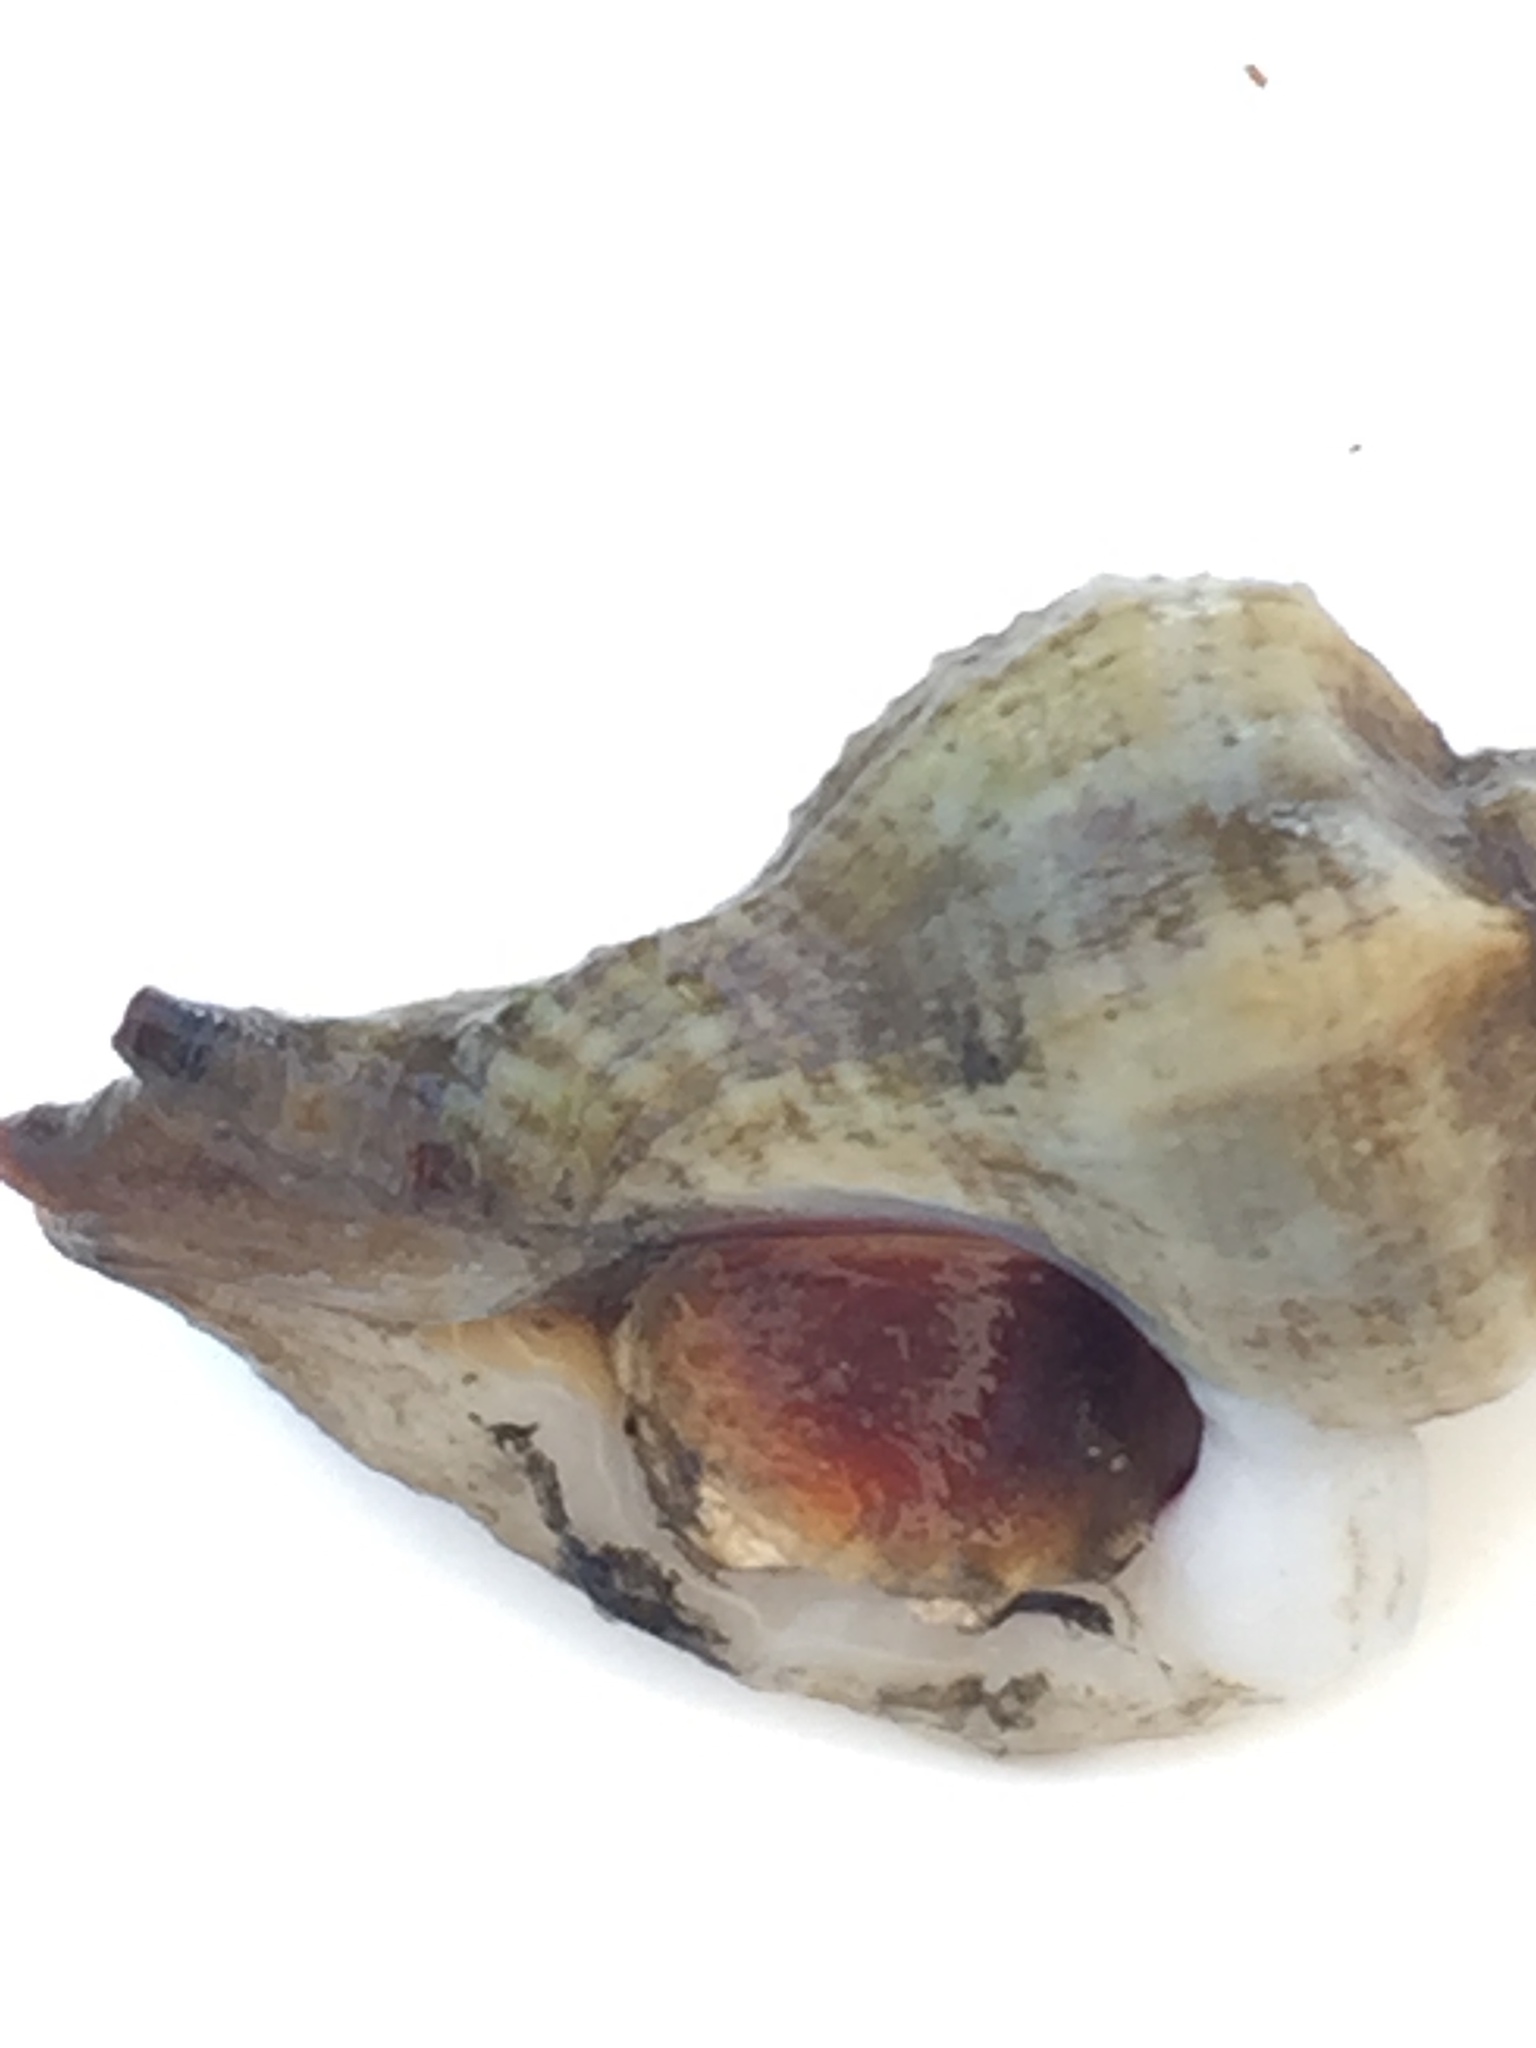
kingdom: Animalia
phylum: Mollusca
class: Gastropoda
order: Neogastropoda
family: Muricidae
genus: Ocinebrellus
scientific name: Ocinebrellus inornatus
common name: Asian drill snail
